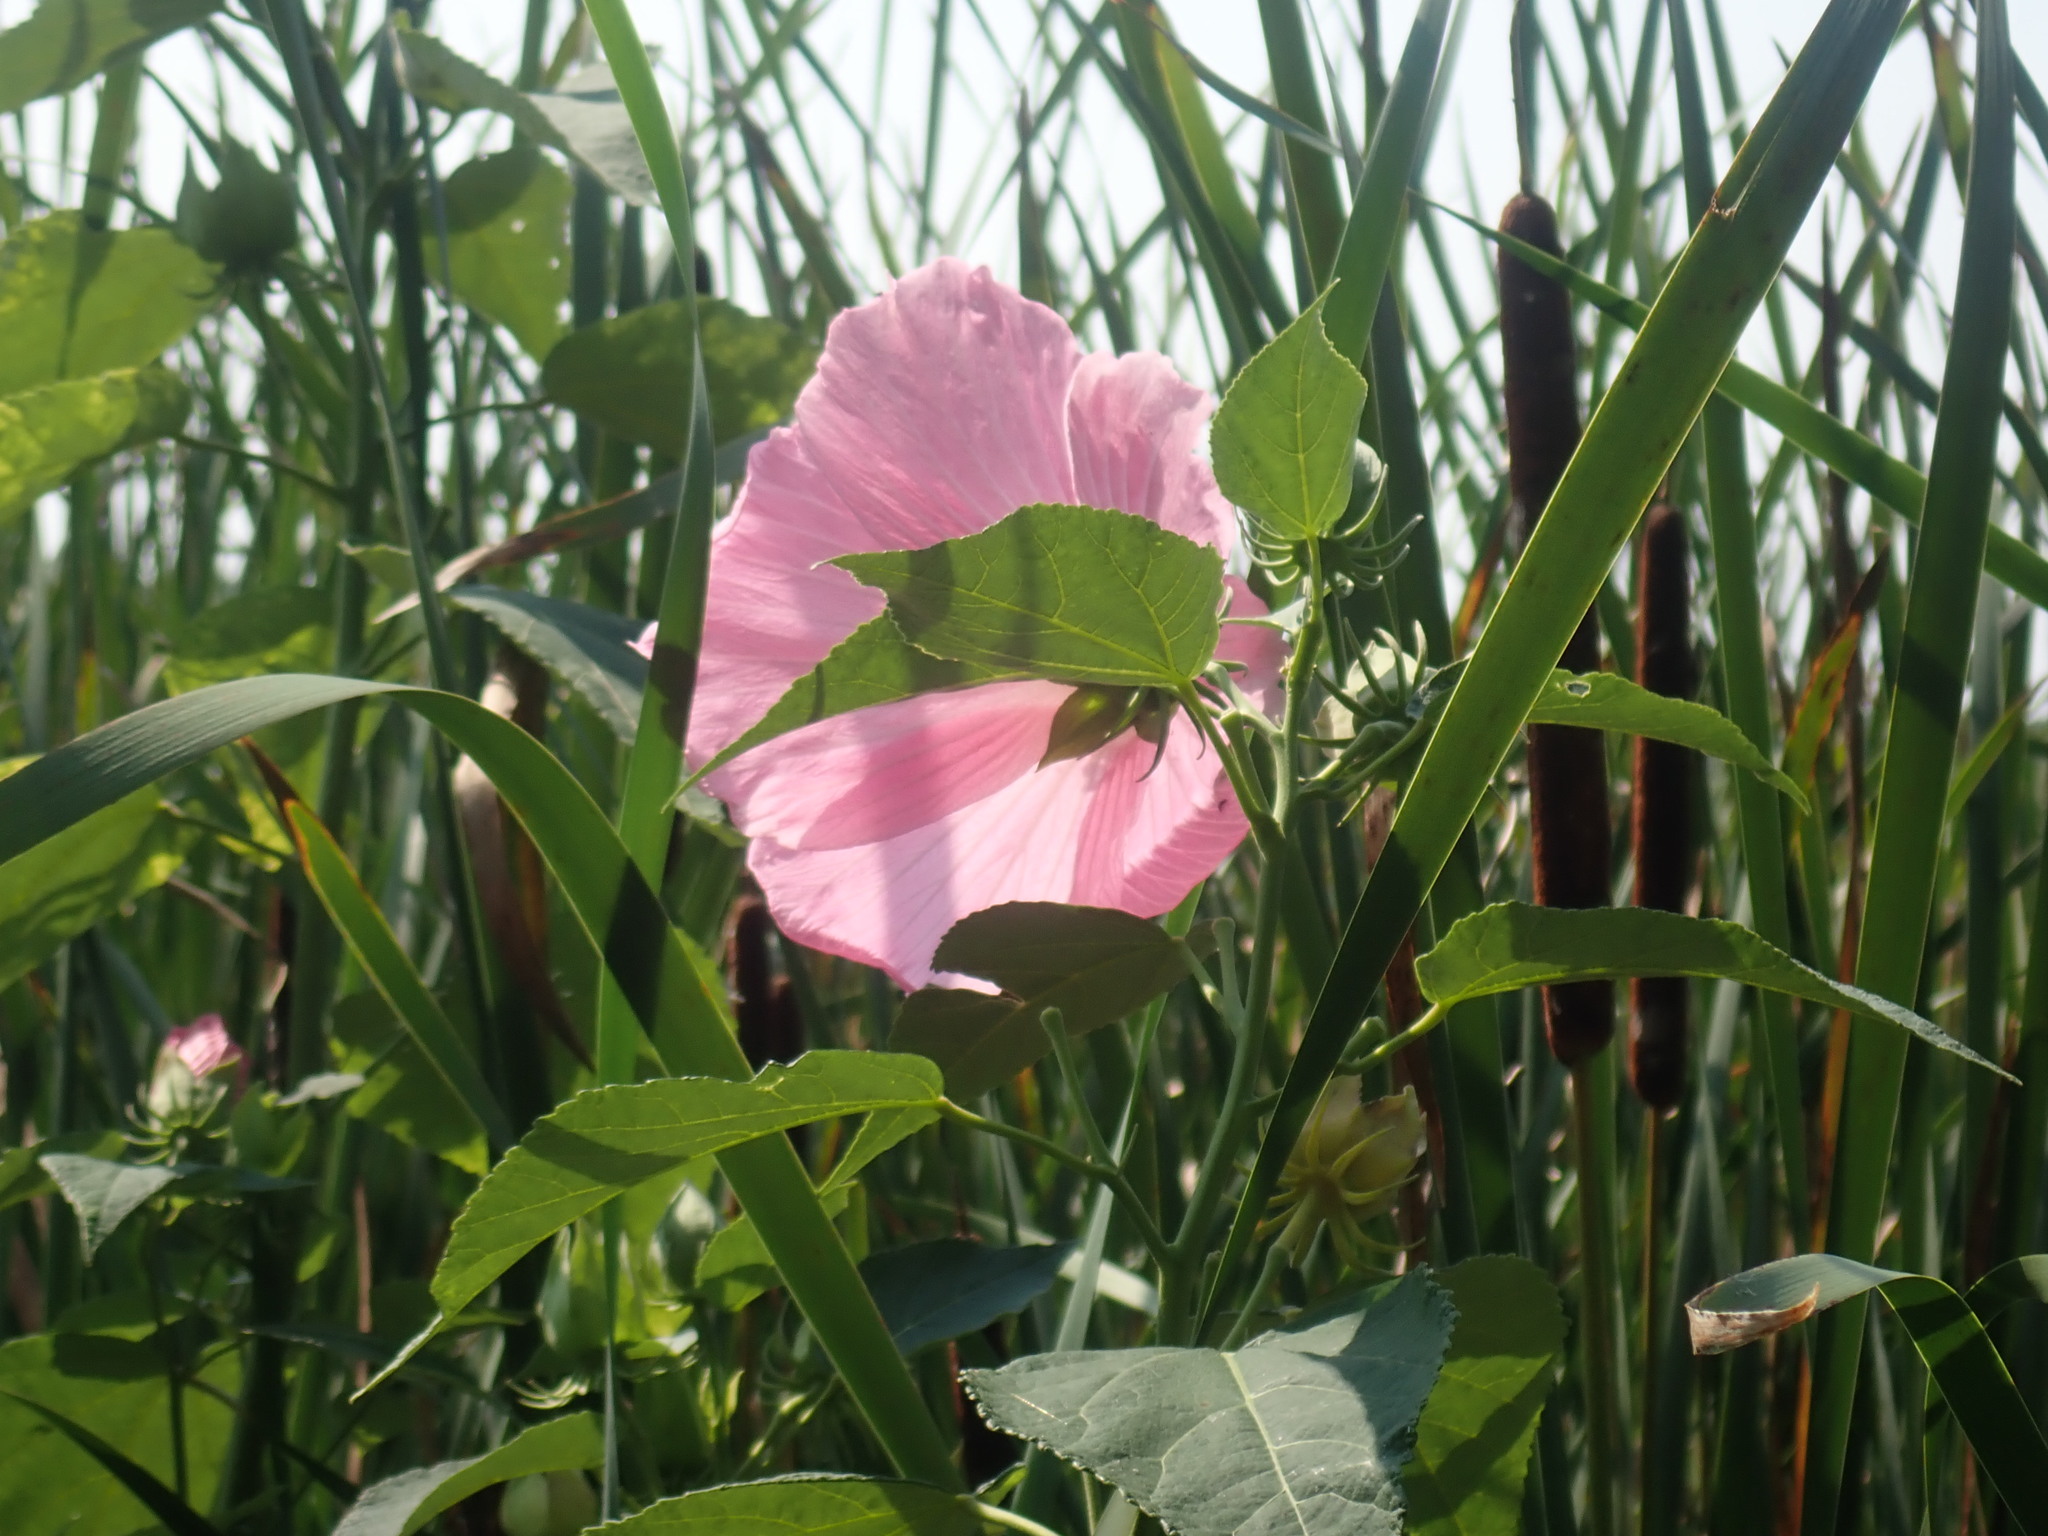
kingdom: Plantae
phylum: Tracheophyta
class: Magnoliopsida
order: Malvales
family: Malvaceae
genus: Hibiscus
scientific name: Hibiscus moscheutos
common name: Common rose-mallow
